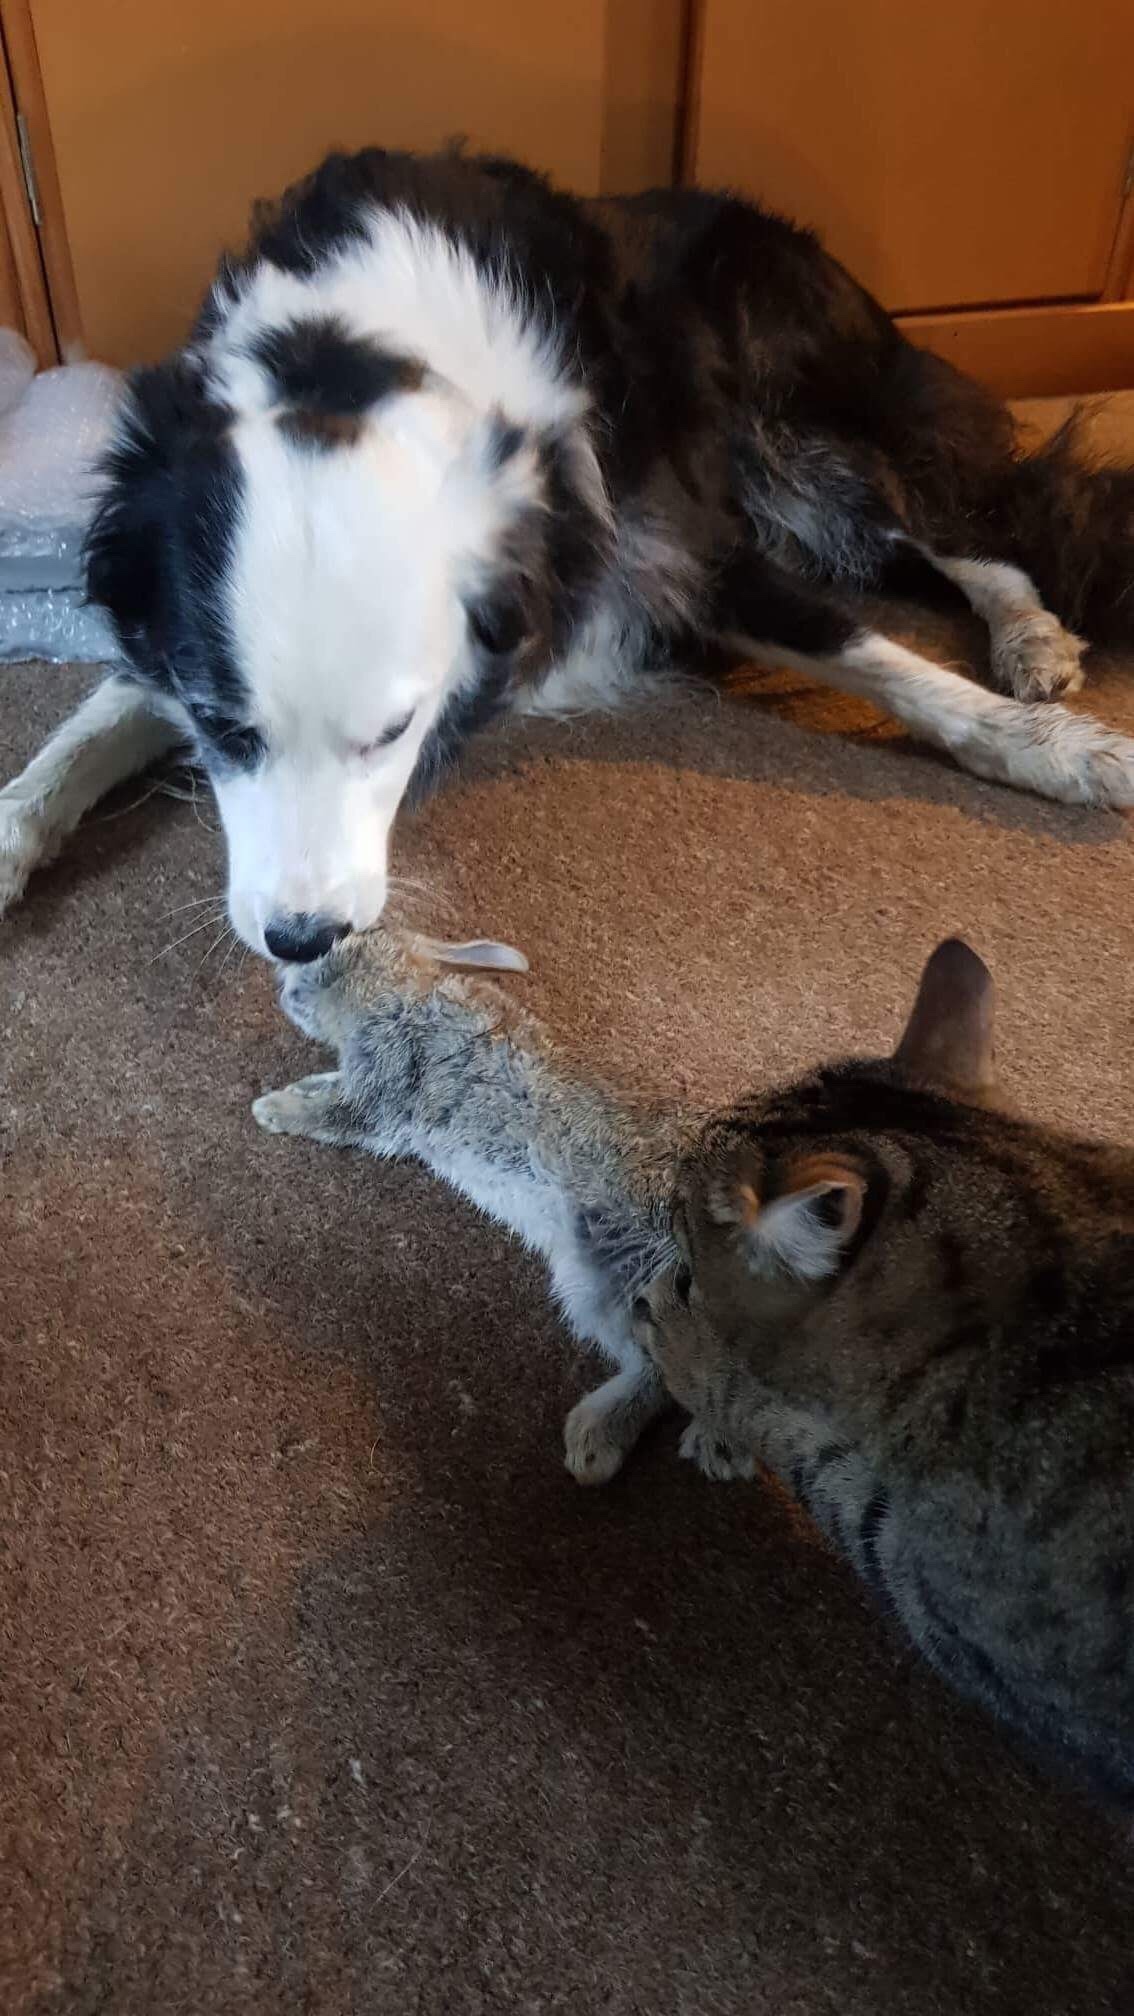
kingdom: Animalia
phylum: Chordata
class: Mammalia
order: Lagomorpha
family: Leporidae
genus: Oryctolagus
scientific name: Oryctolagus cuniculus
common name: European rabbit
